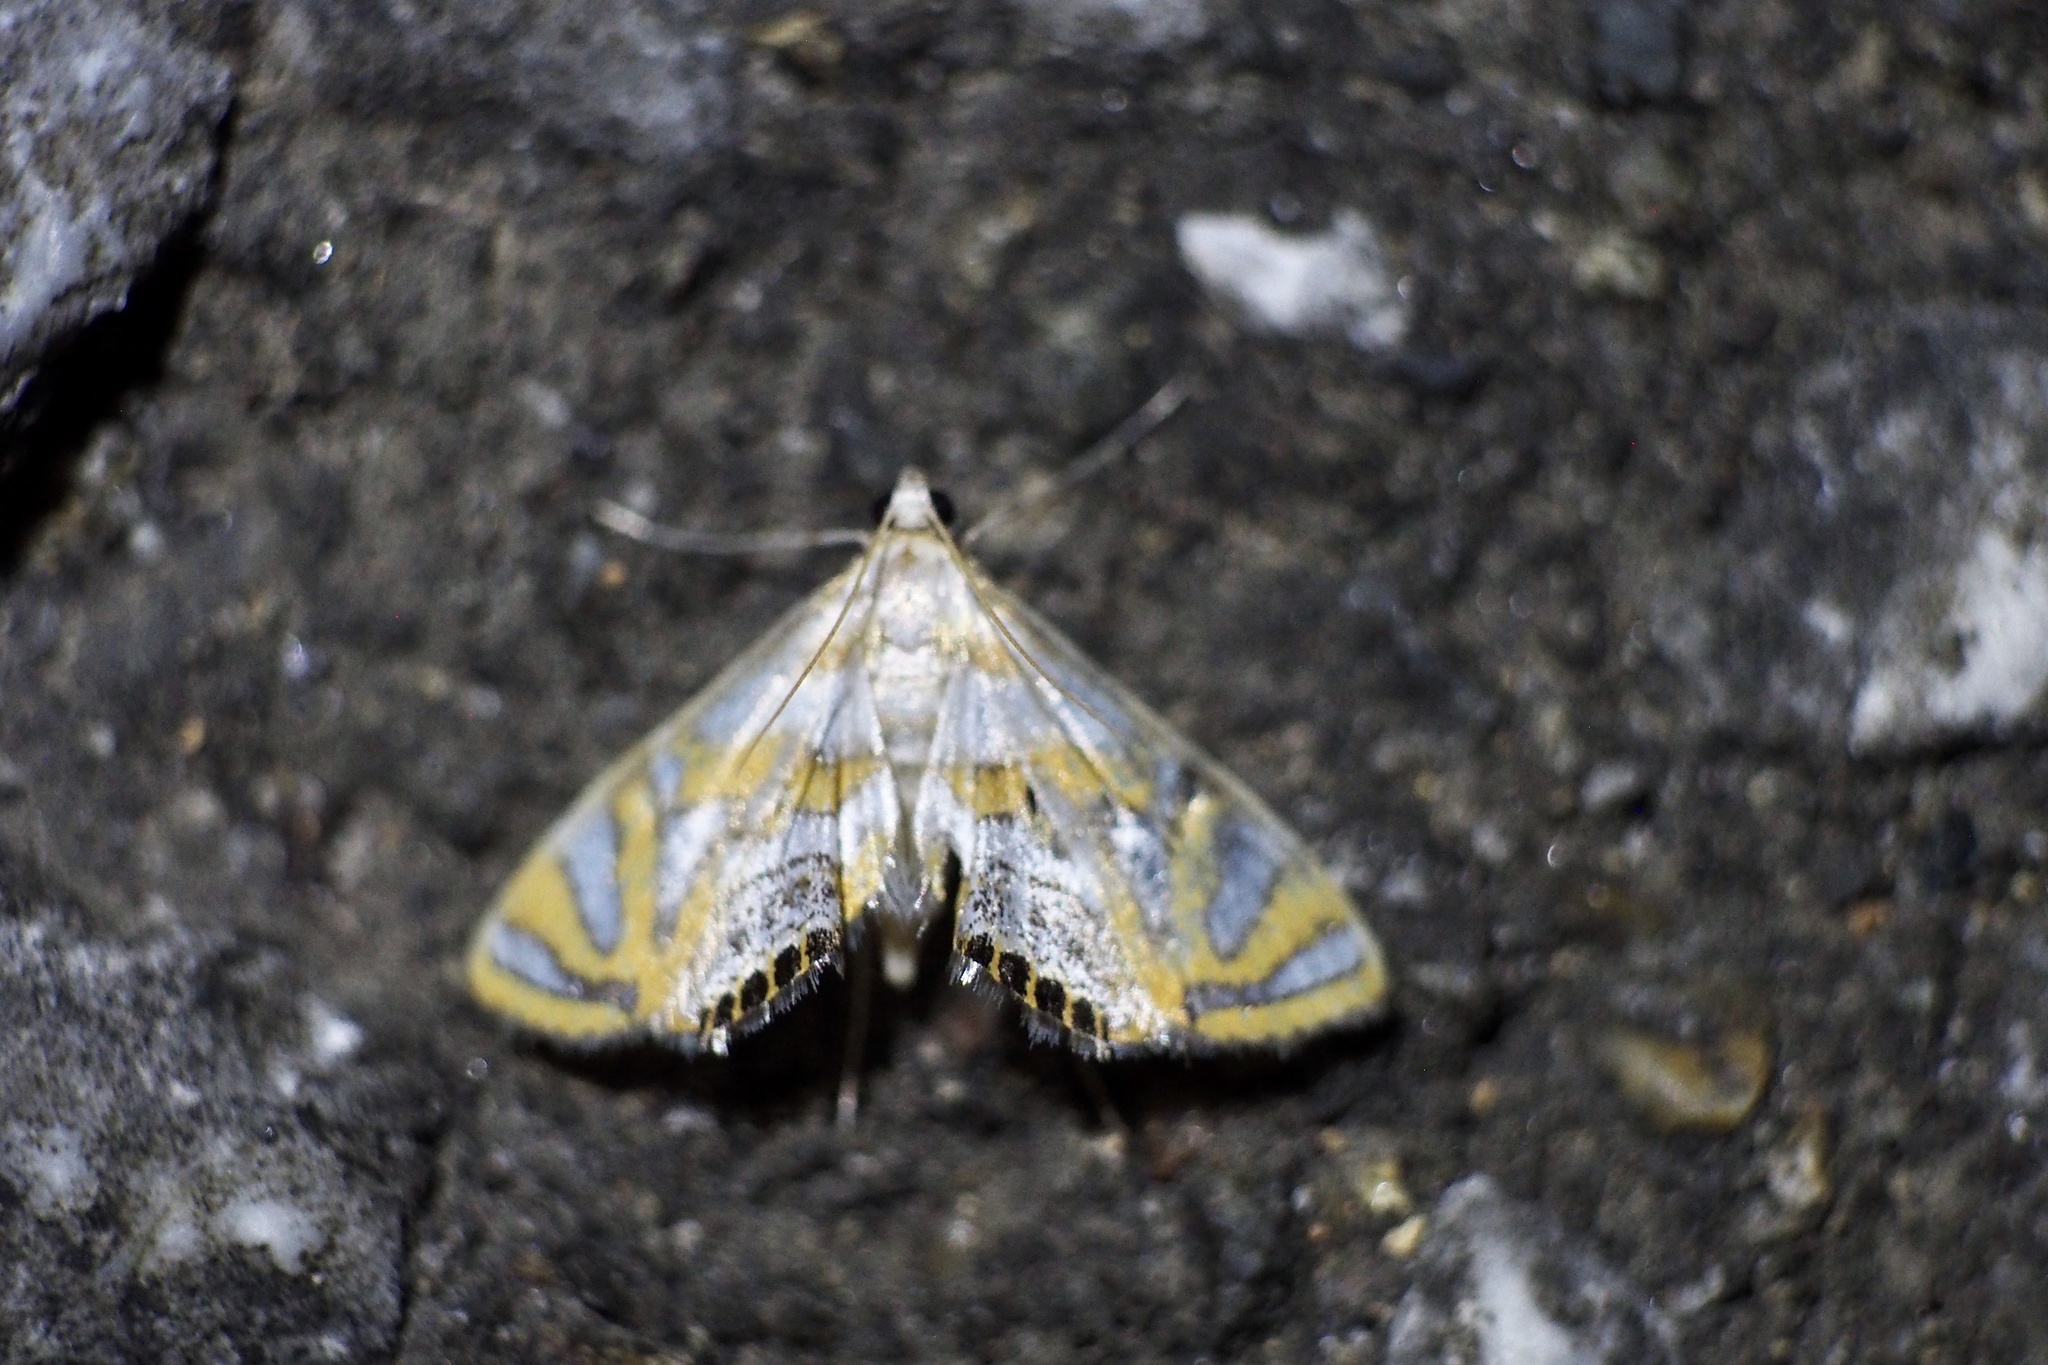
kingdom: Animalia
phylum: Arthropoda
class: Insecta
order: Lepidoptera
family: Crambidae
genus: Potamomusa
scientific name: Potamomusa midas
